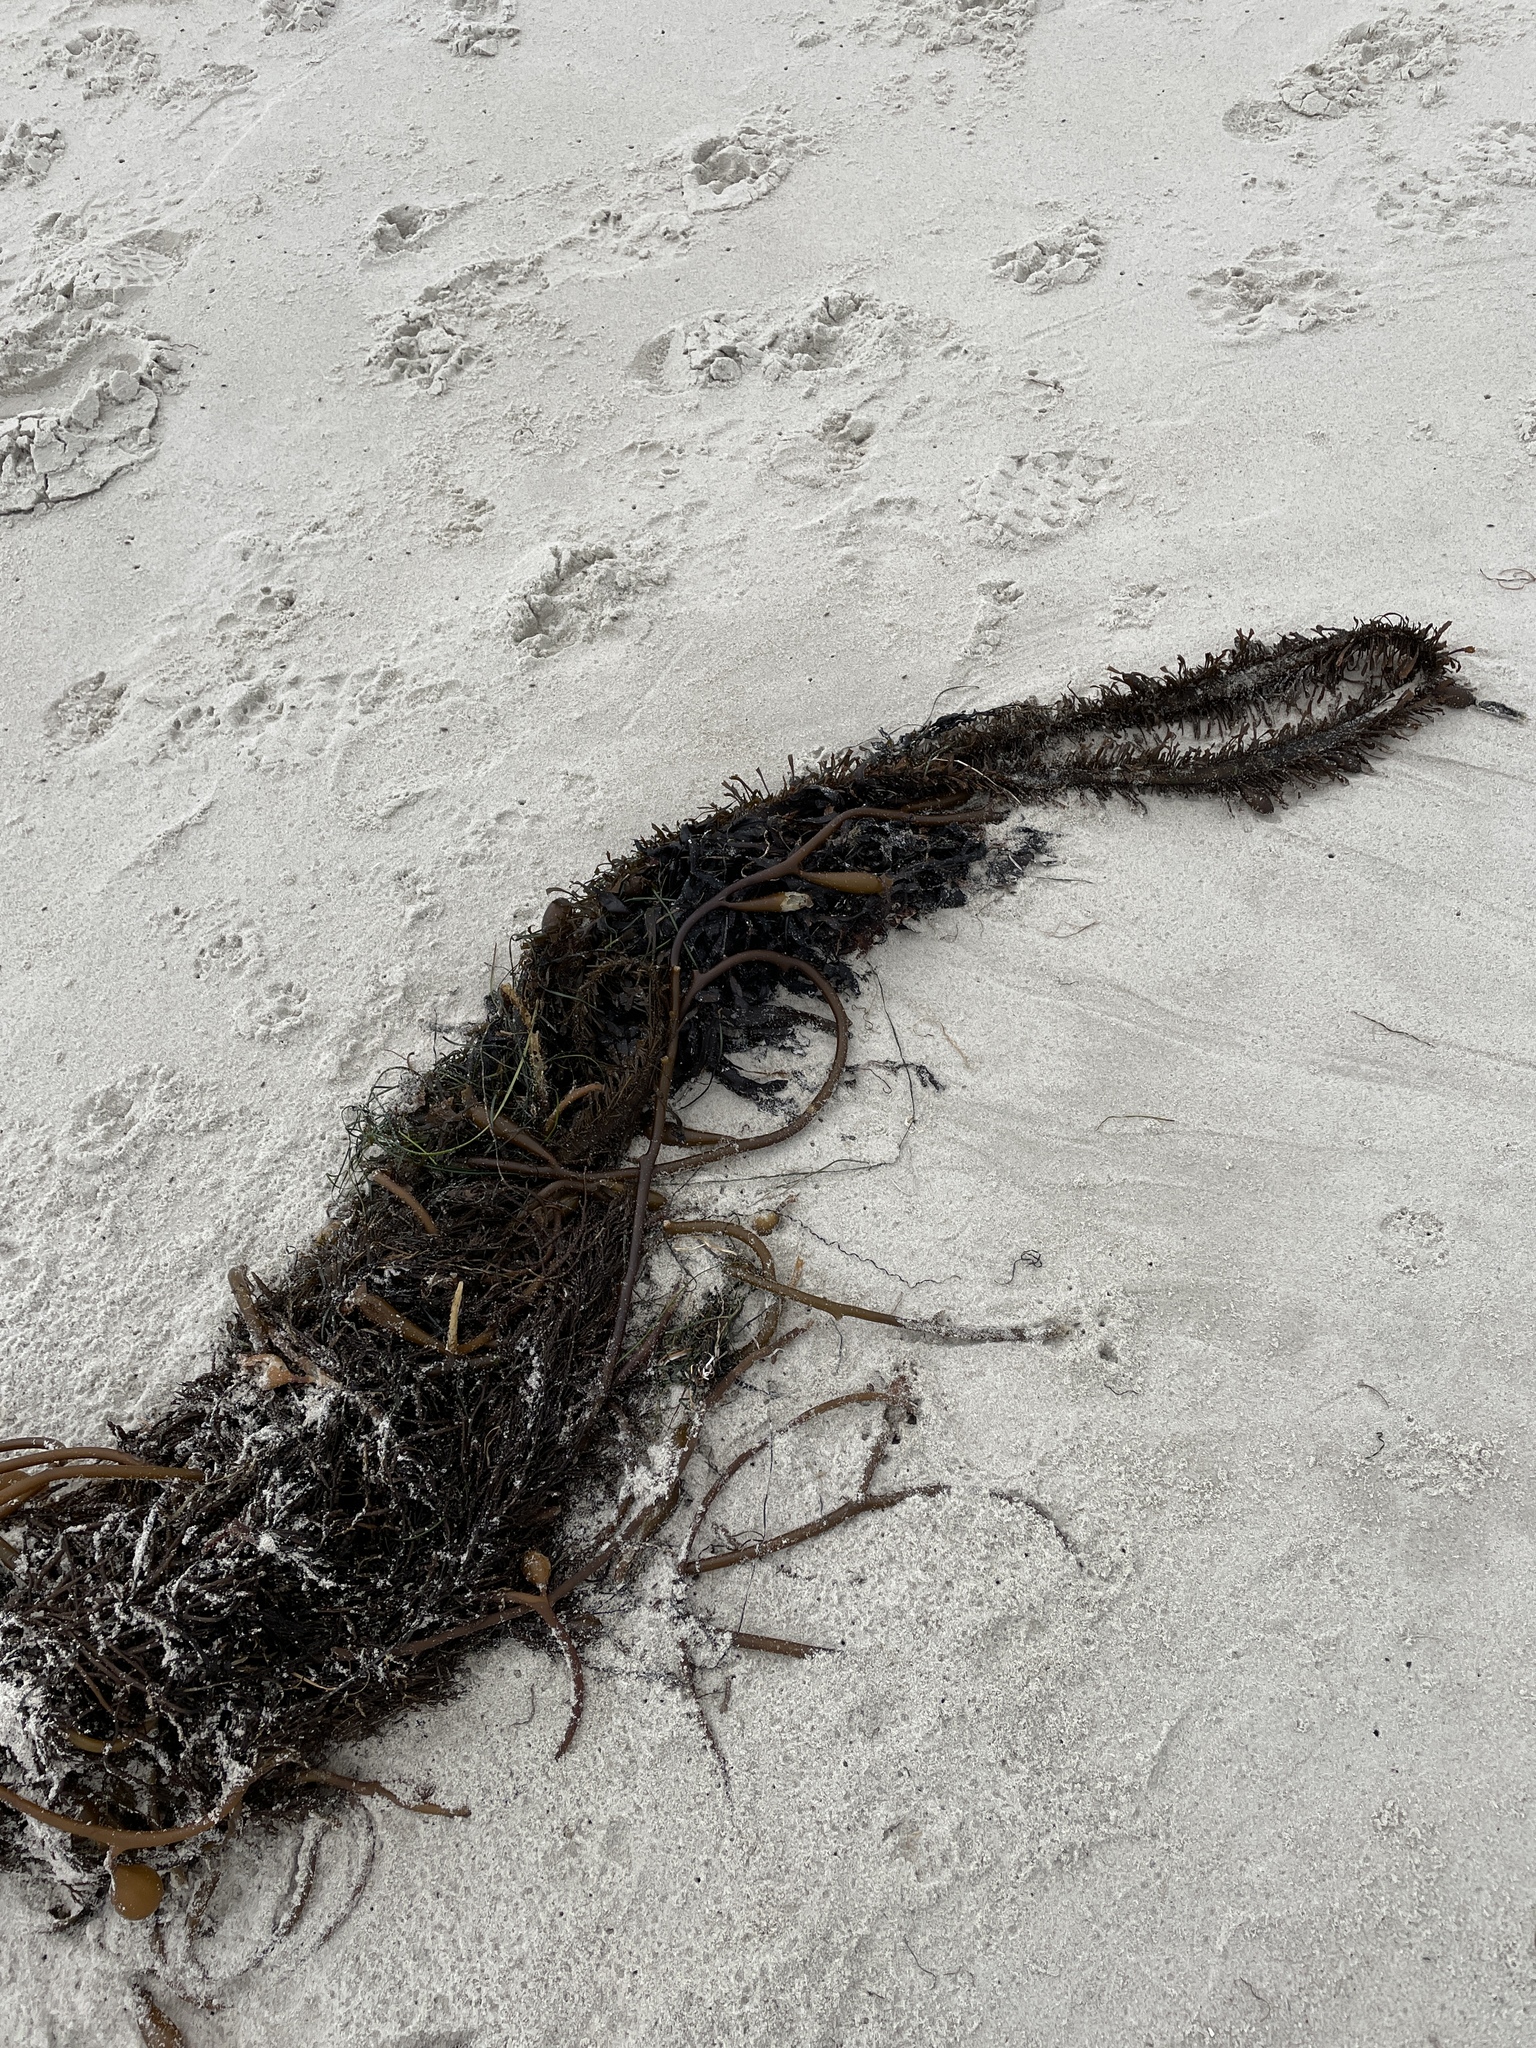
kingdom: Chromista
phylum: Ochrophyta
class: Phaeophyceae
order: Laminariales
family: Lessoniaceae
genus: Egregia
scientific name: Egregia menziesii
